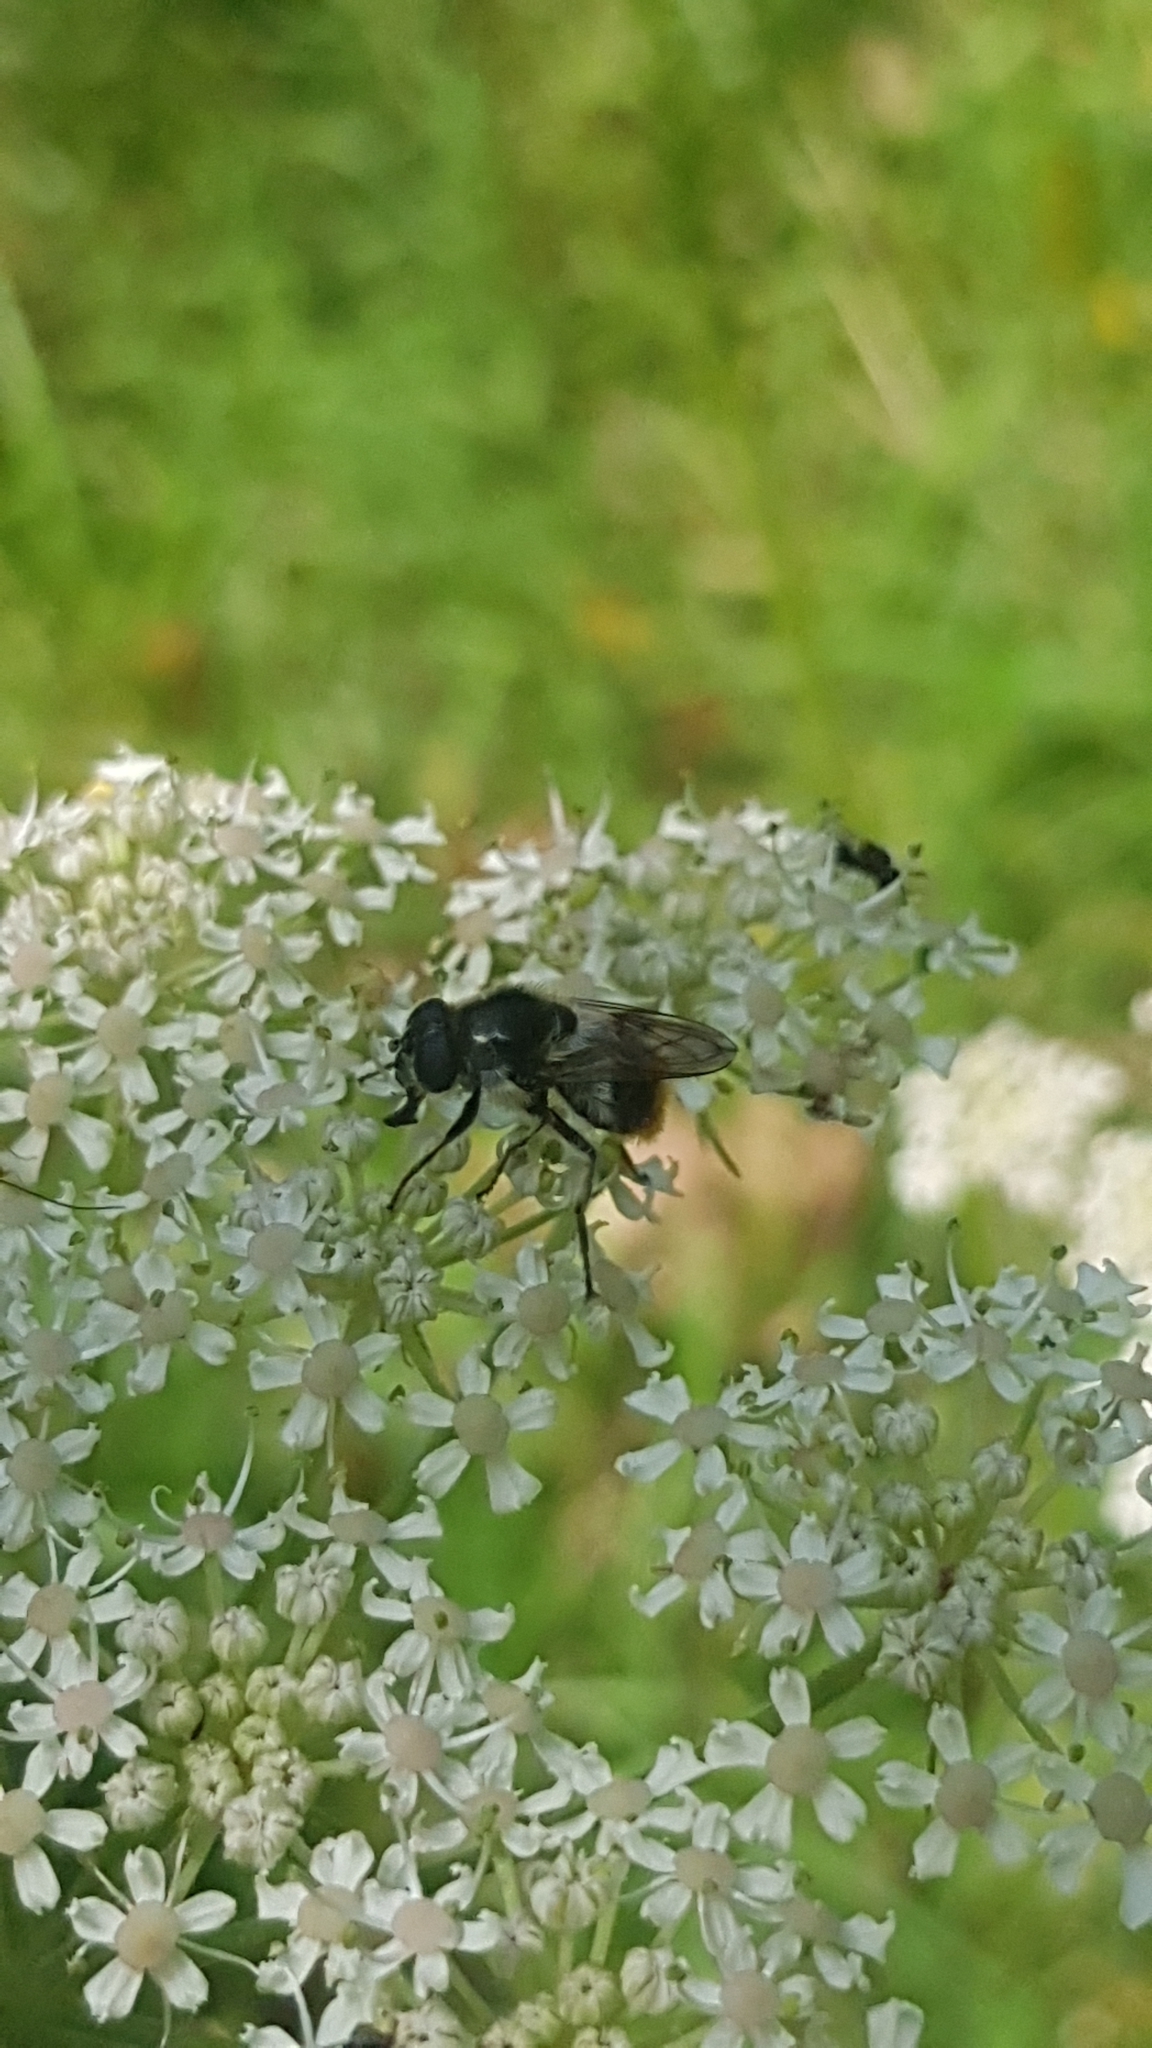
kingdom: Animalia
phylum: Arthropoda
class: Insecta
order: Diptera
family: Syrphidae
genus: Cheilosia
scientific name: Cheilosia illustrata
